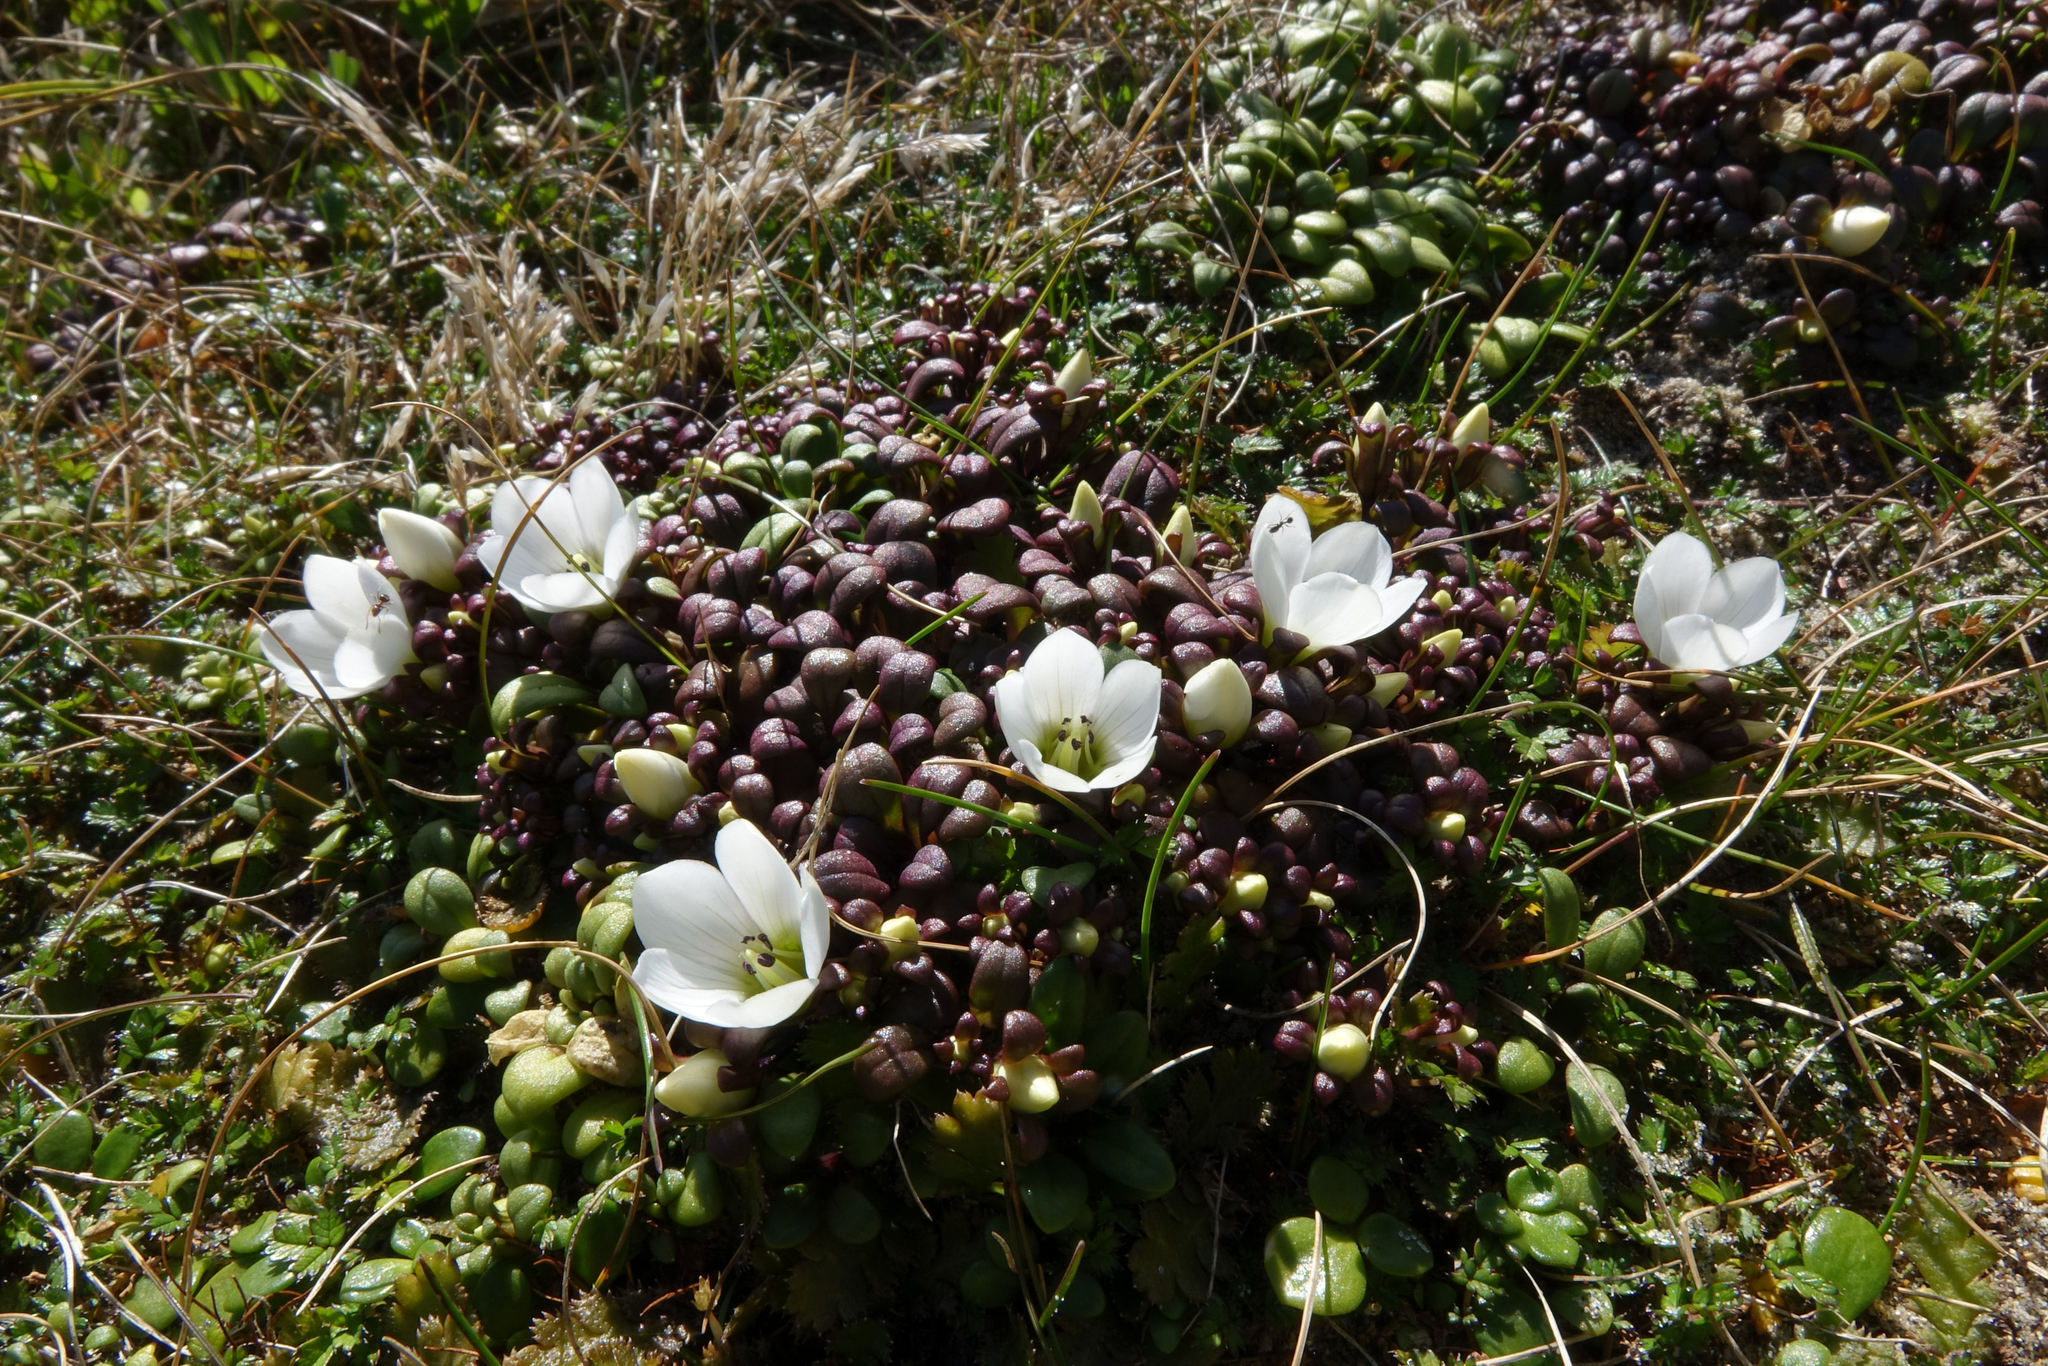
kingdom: Plantae
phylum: Tracheophyta
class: Magnoliopsida
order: Gentianales
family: Gentianaceae
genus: Gentianella
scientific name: Gentianella saxosa
